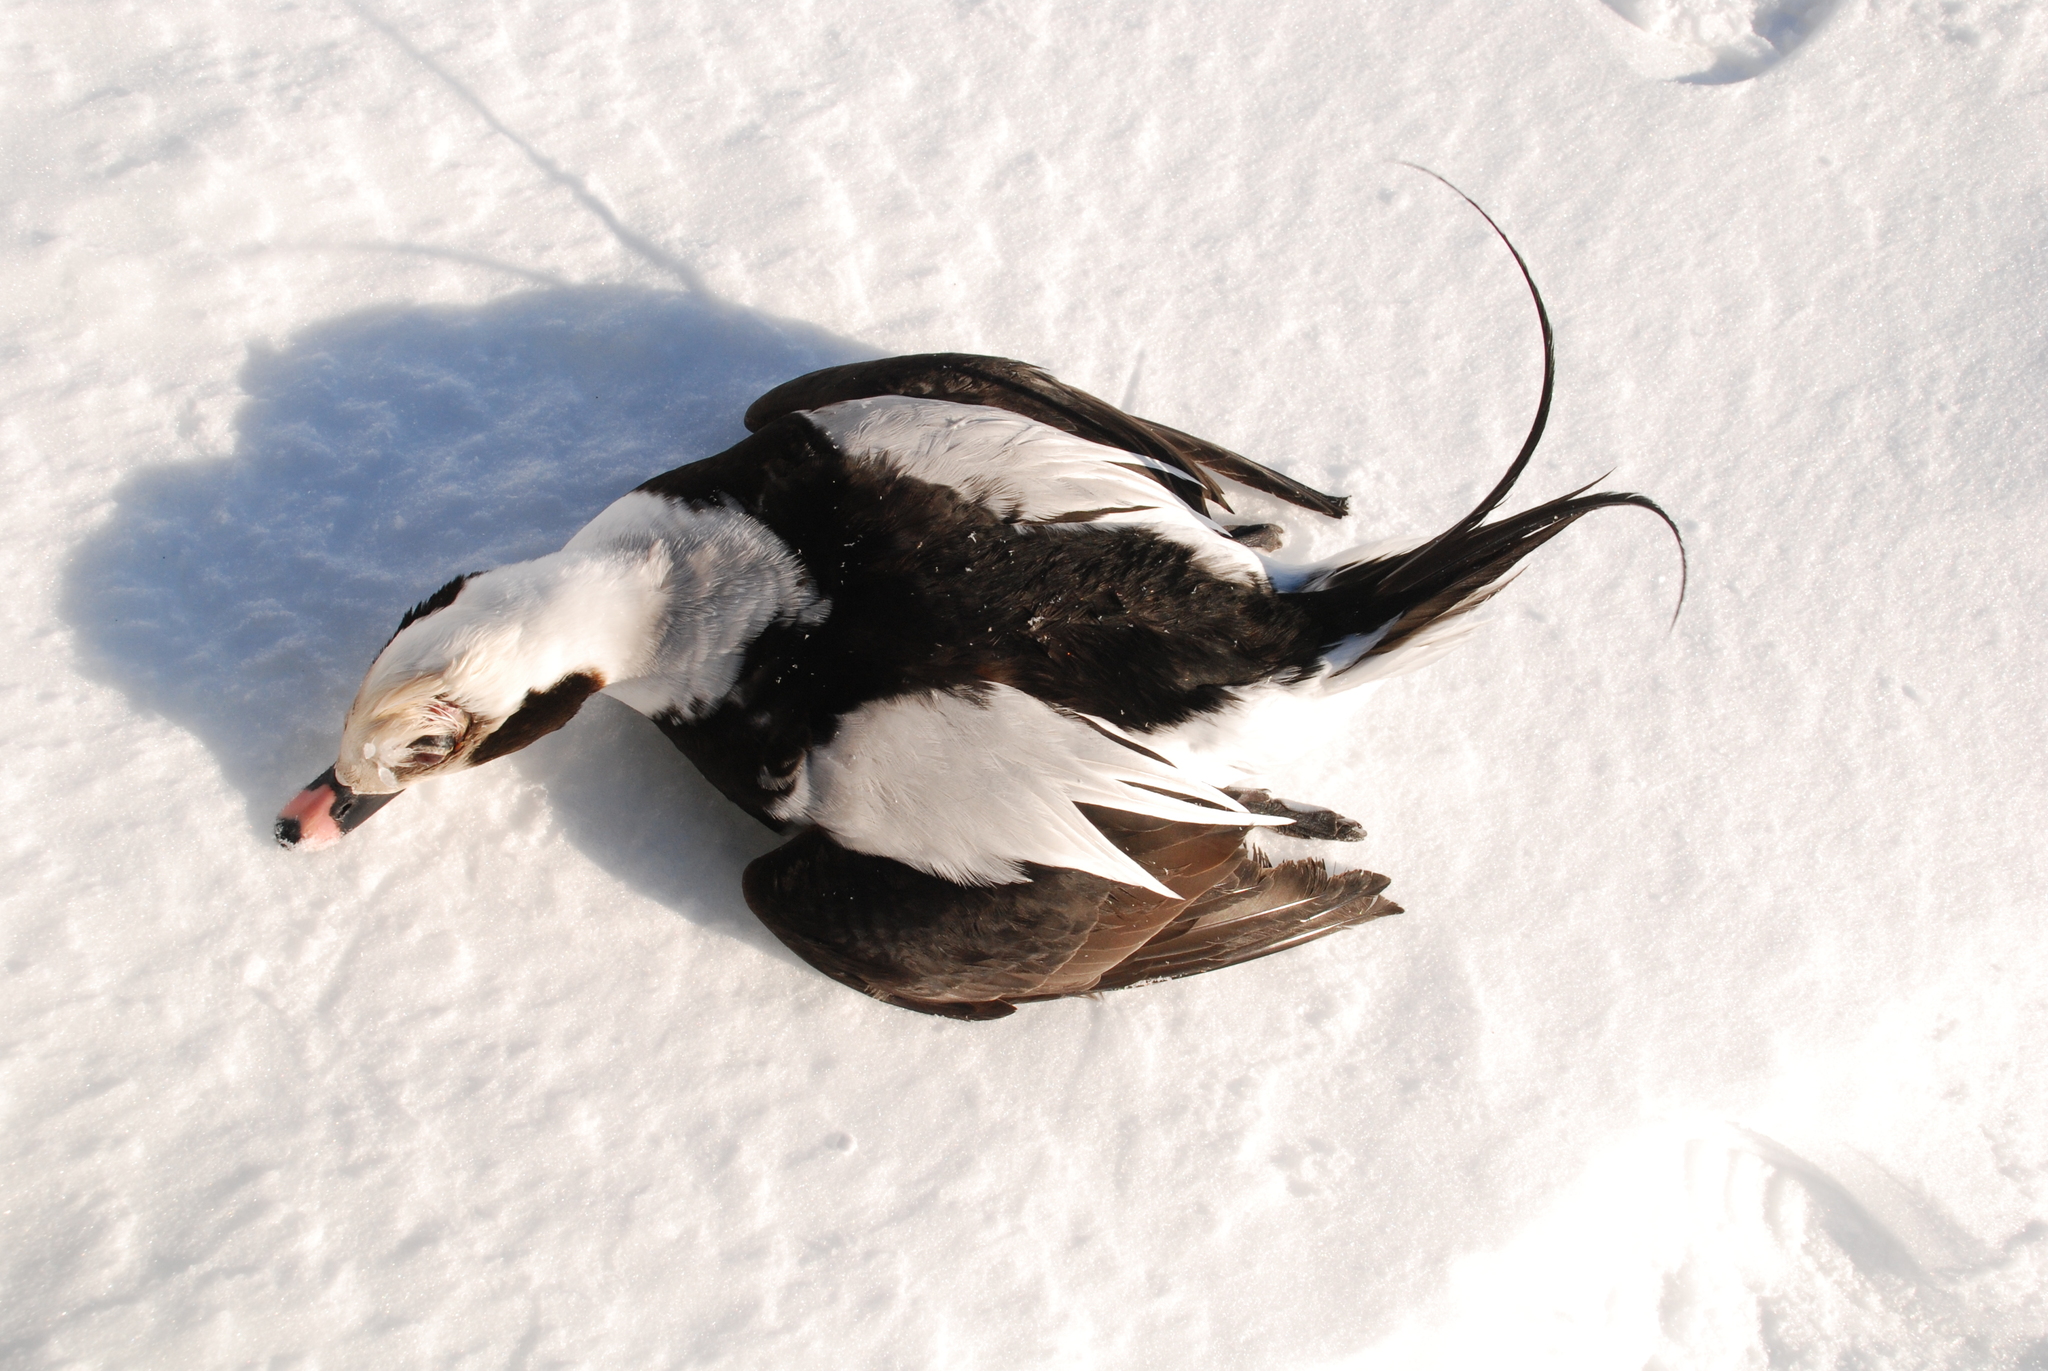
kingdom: Animalia
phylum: Chordata
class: Aves
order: Anseriformes
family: Anatidae
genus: Clangula
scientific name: Clangula hyemalis
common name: Long-tailed duck
